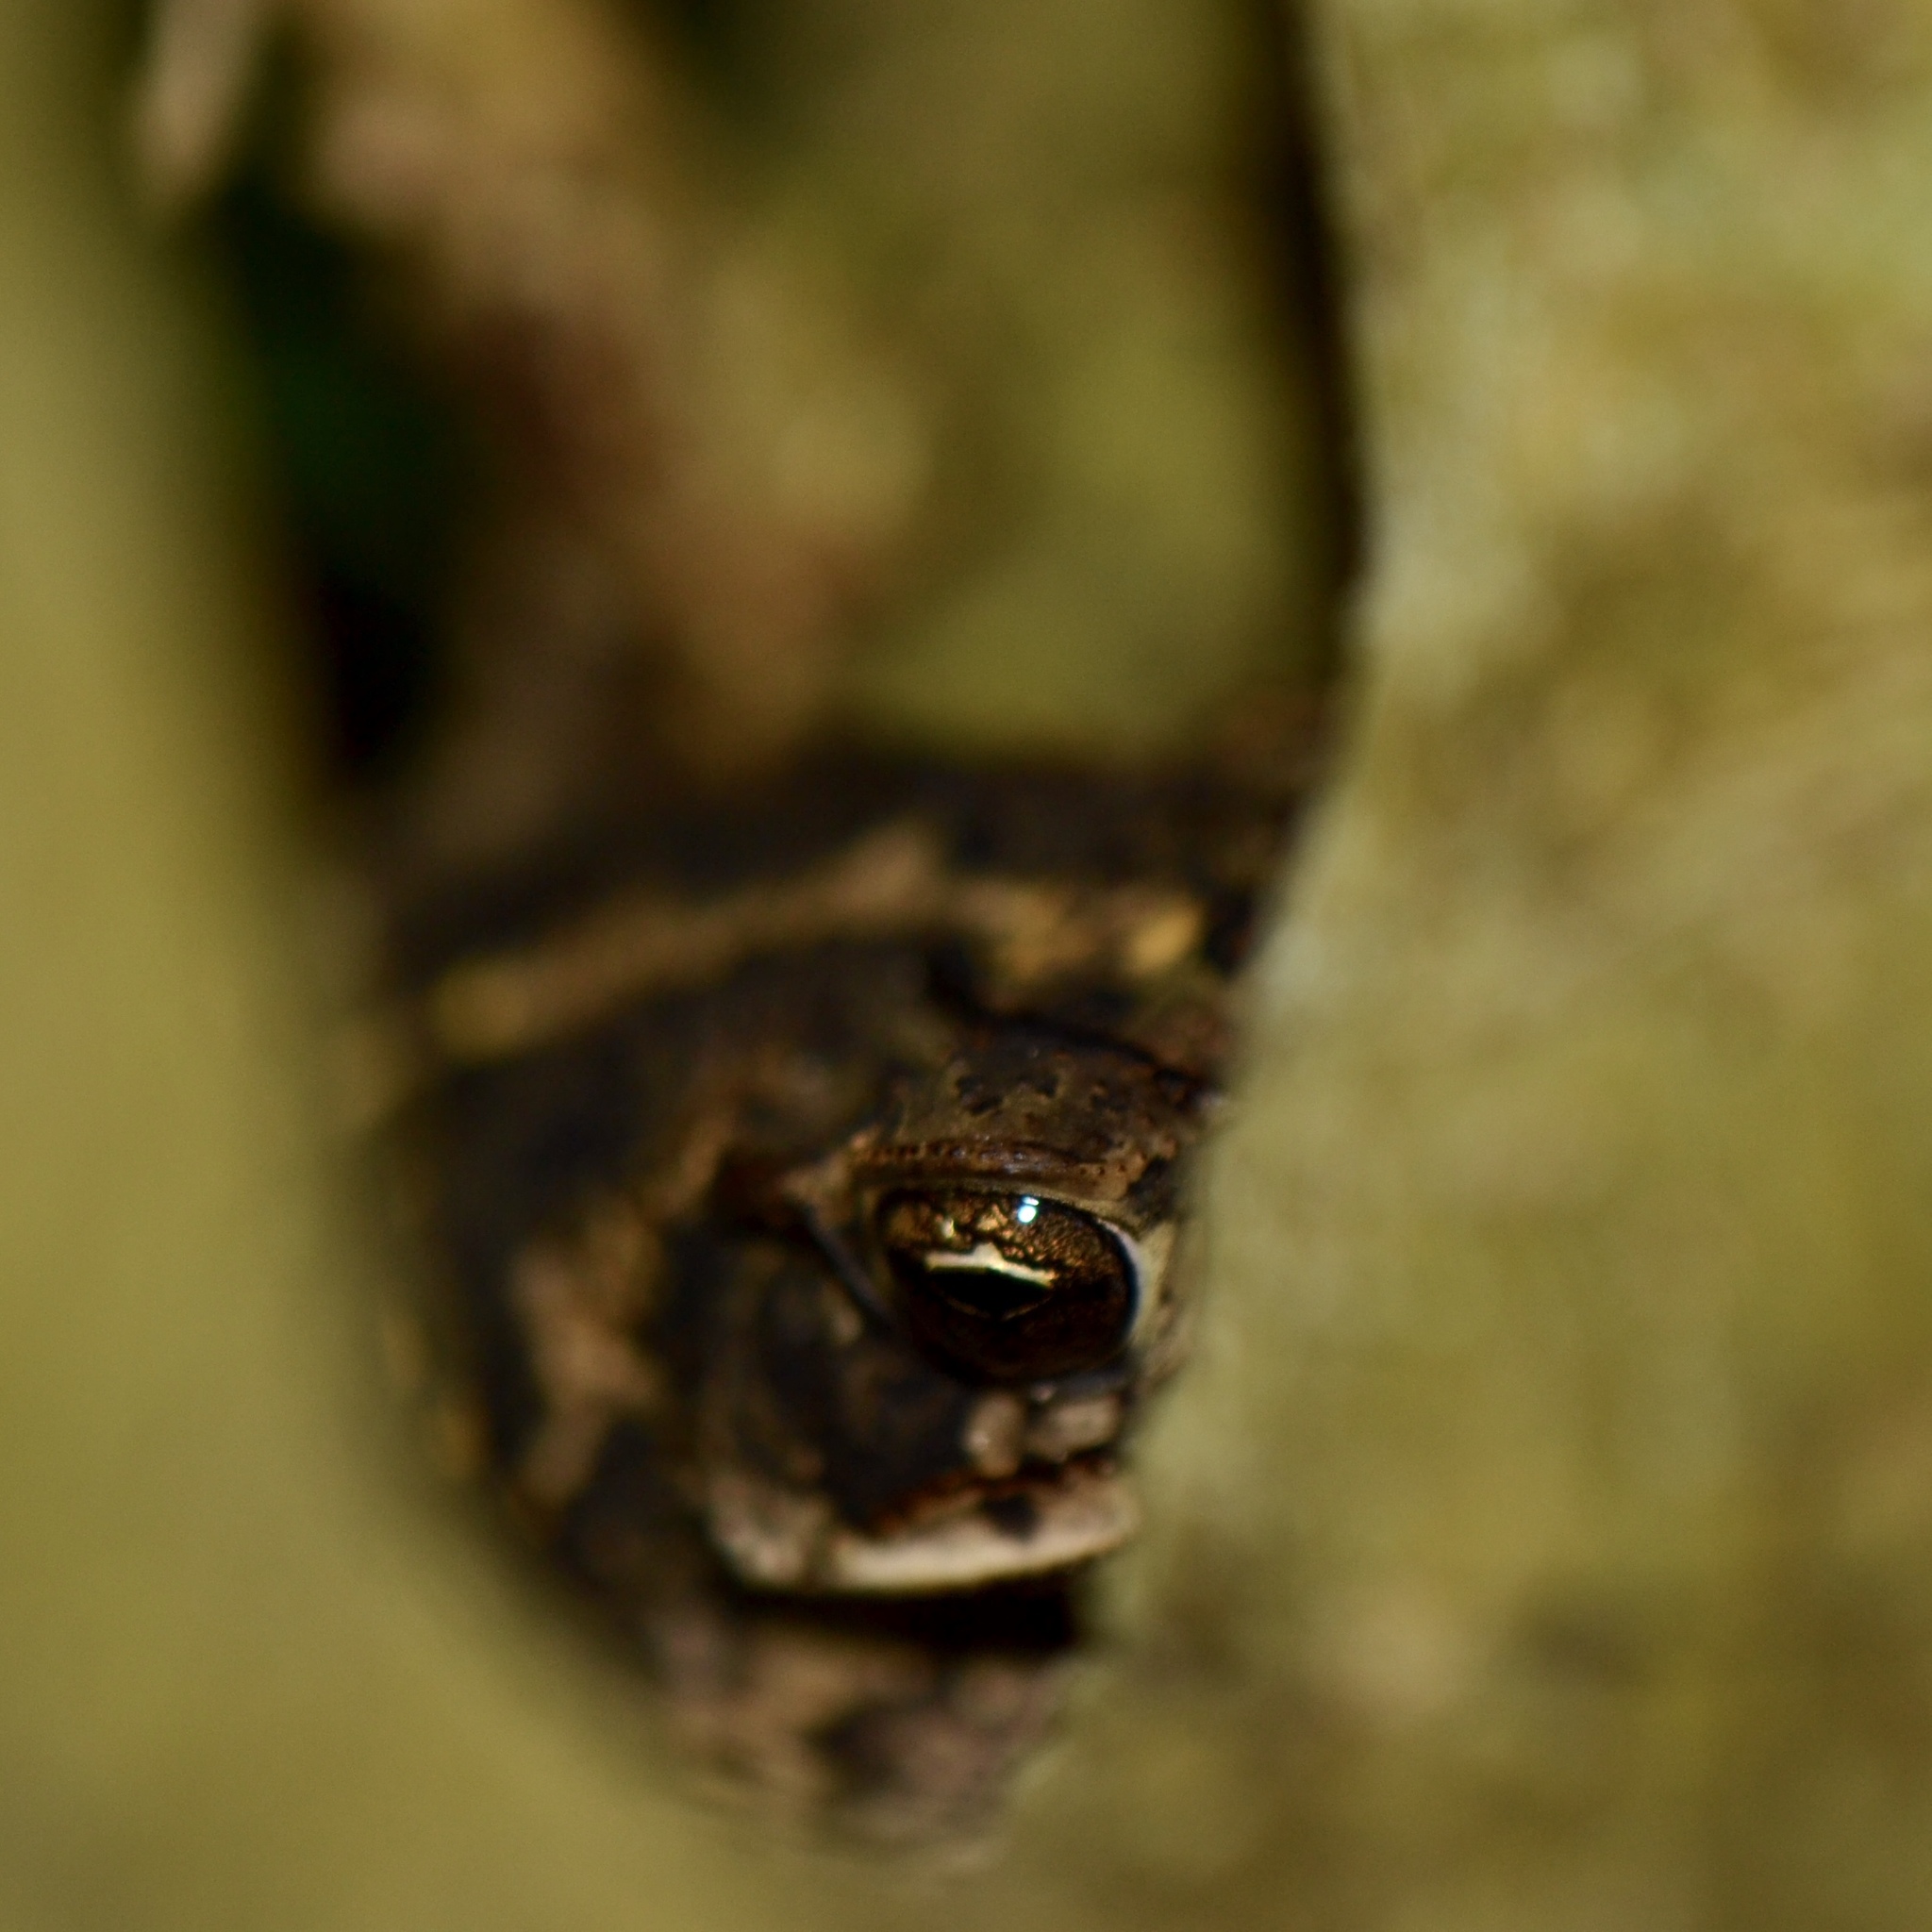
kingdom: Animalia
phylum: Chordata
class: Amphibia
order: Anura
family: Bufonidae
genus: Incilius
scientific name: Incilius nebulifer
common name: Gulf coast toad
